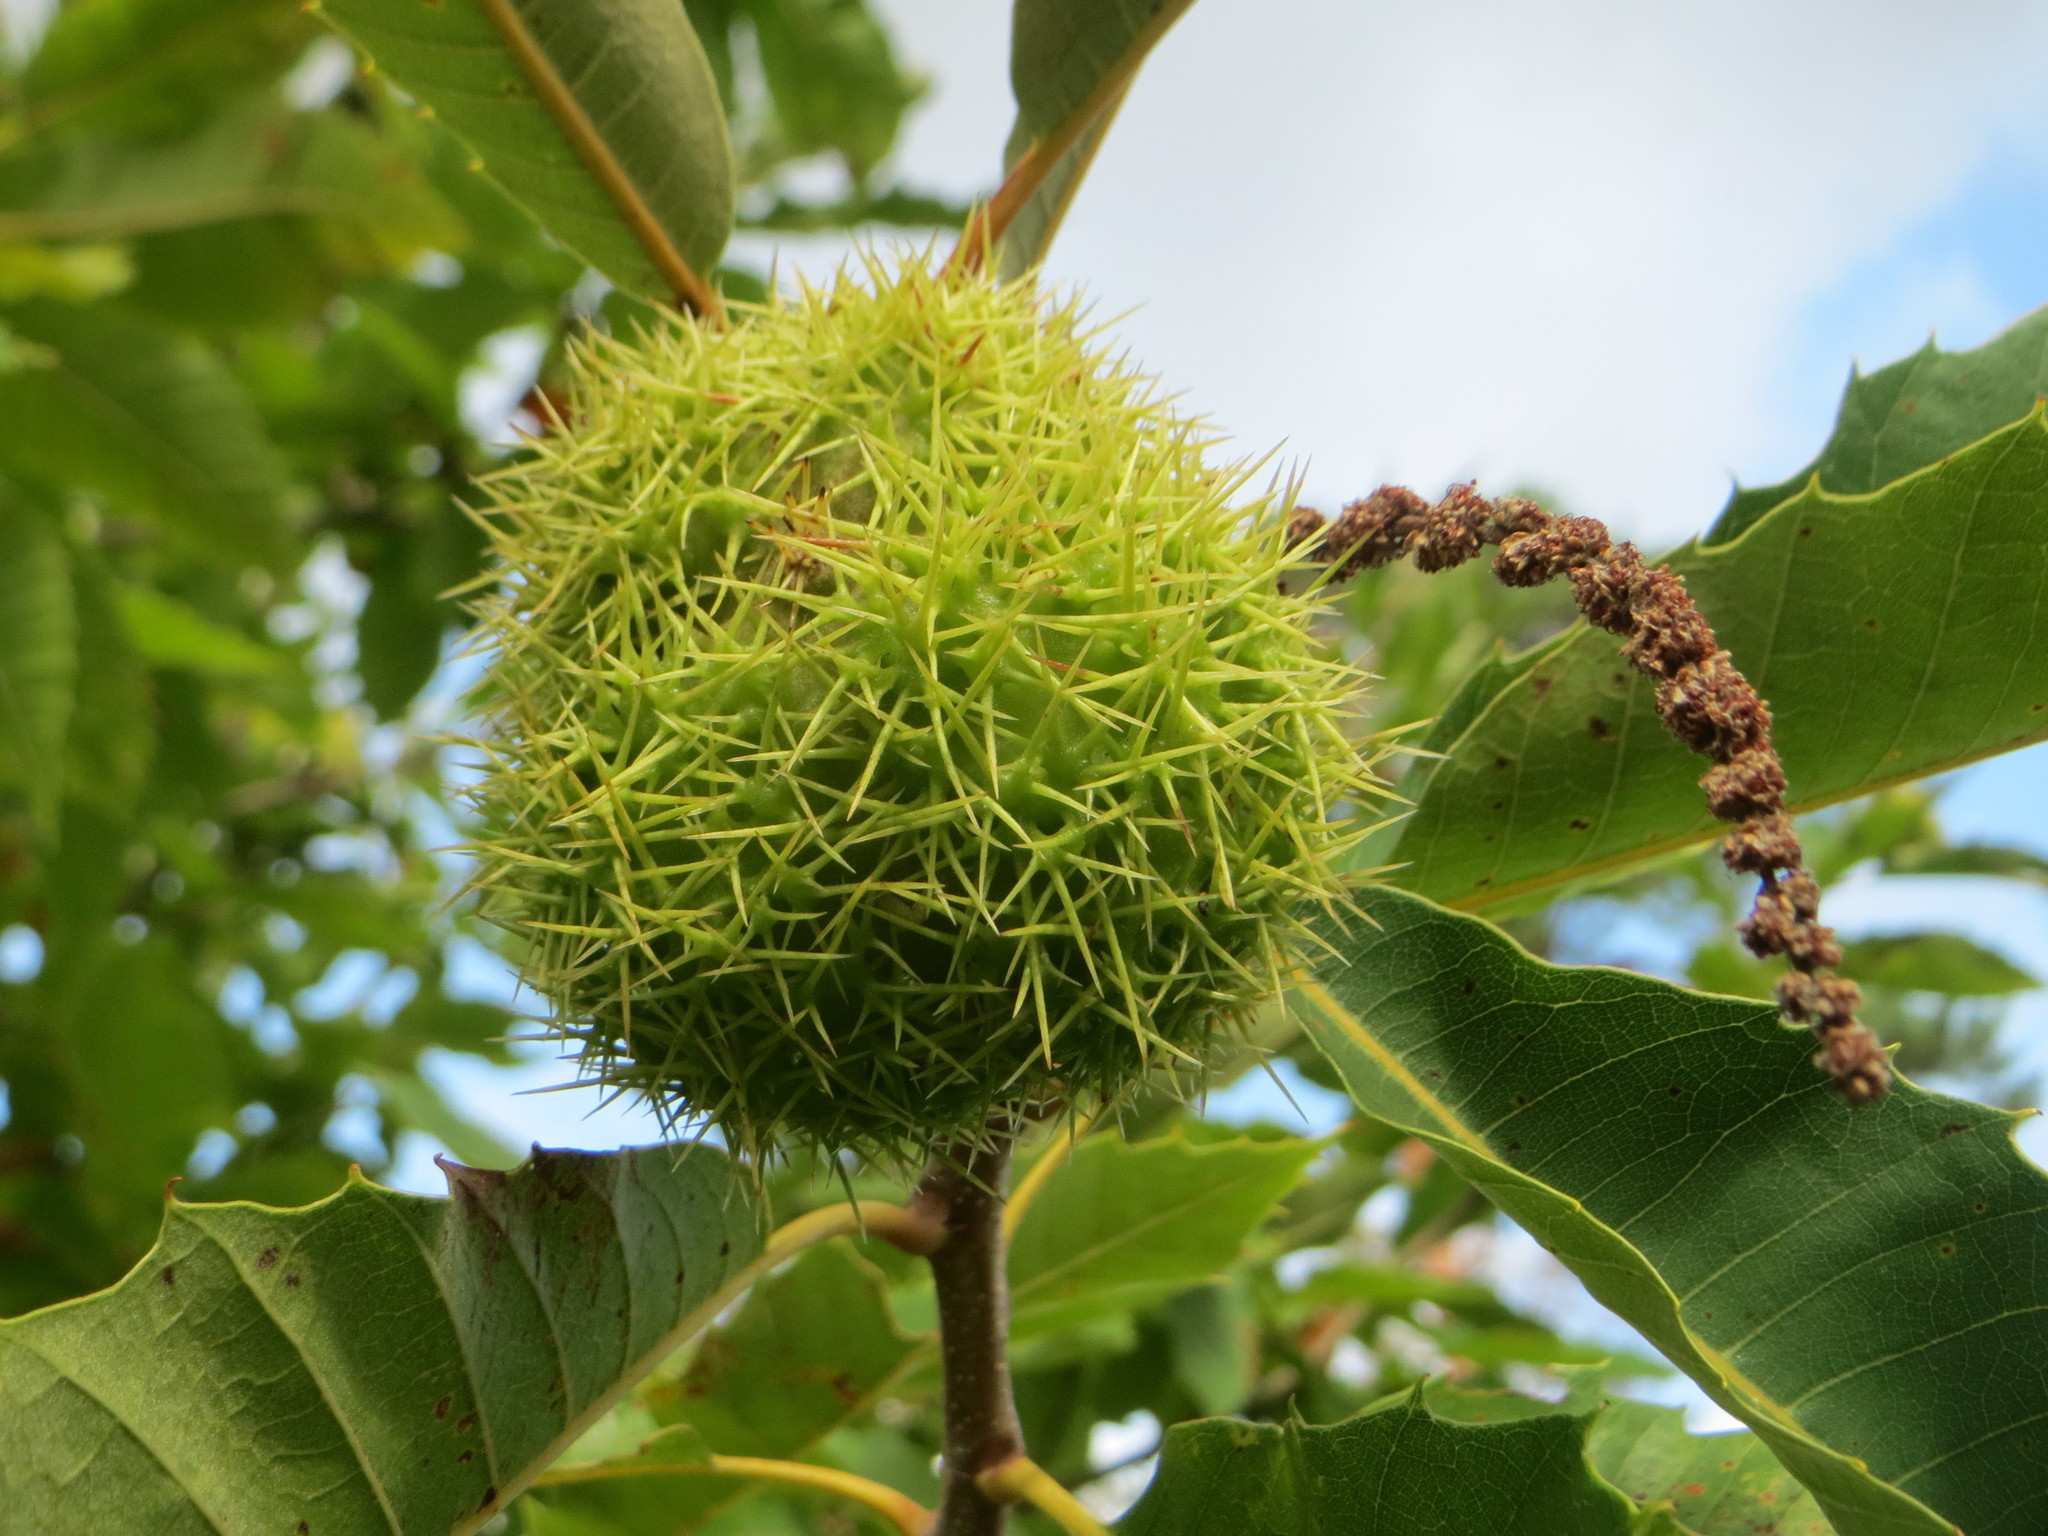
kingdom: Plantae
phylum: Tracheophyta
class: Magnoliopsida
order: Fagales
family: Fagaceae
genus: Castanea
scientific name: Castanea sativa
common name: Sweet chestnut
